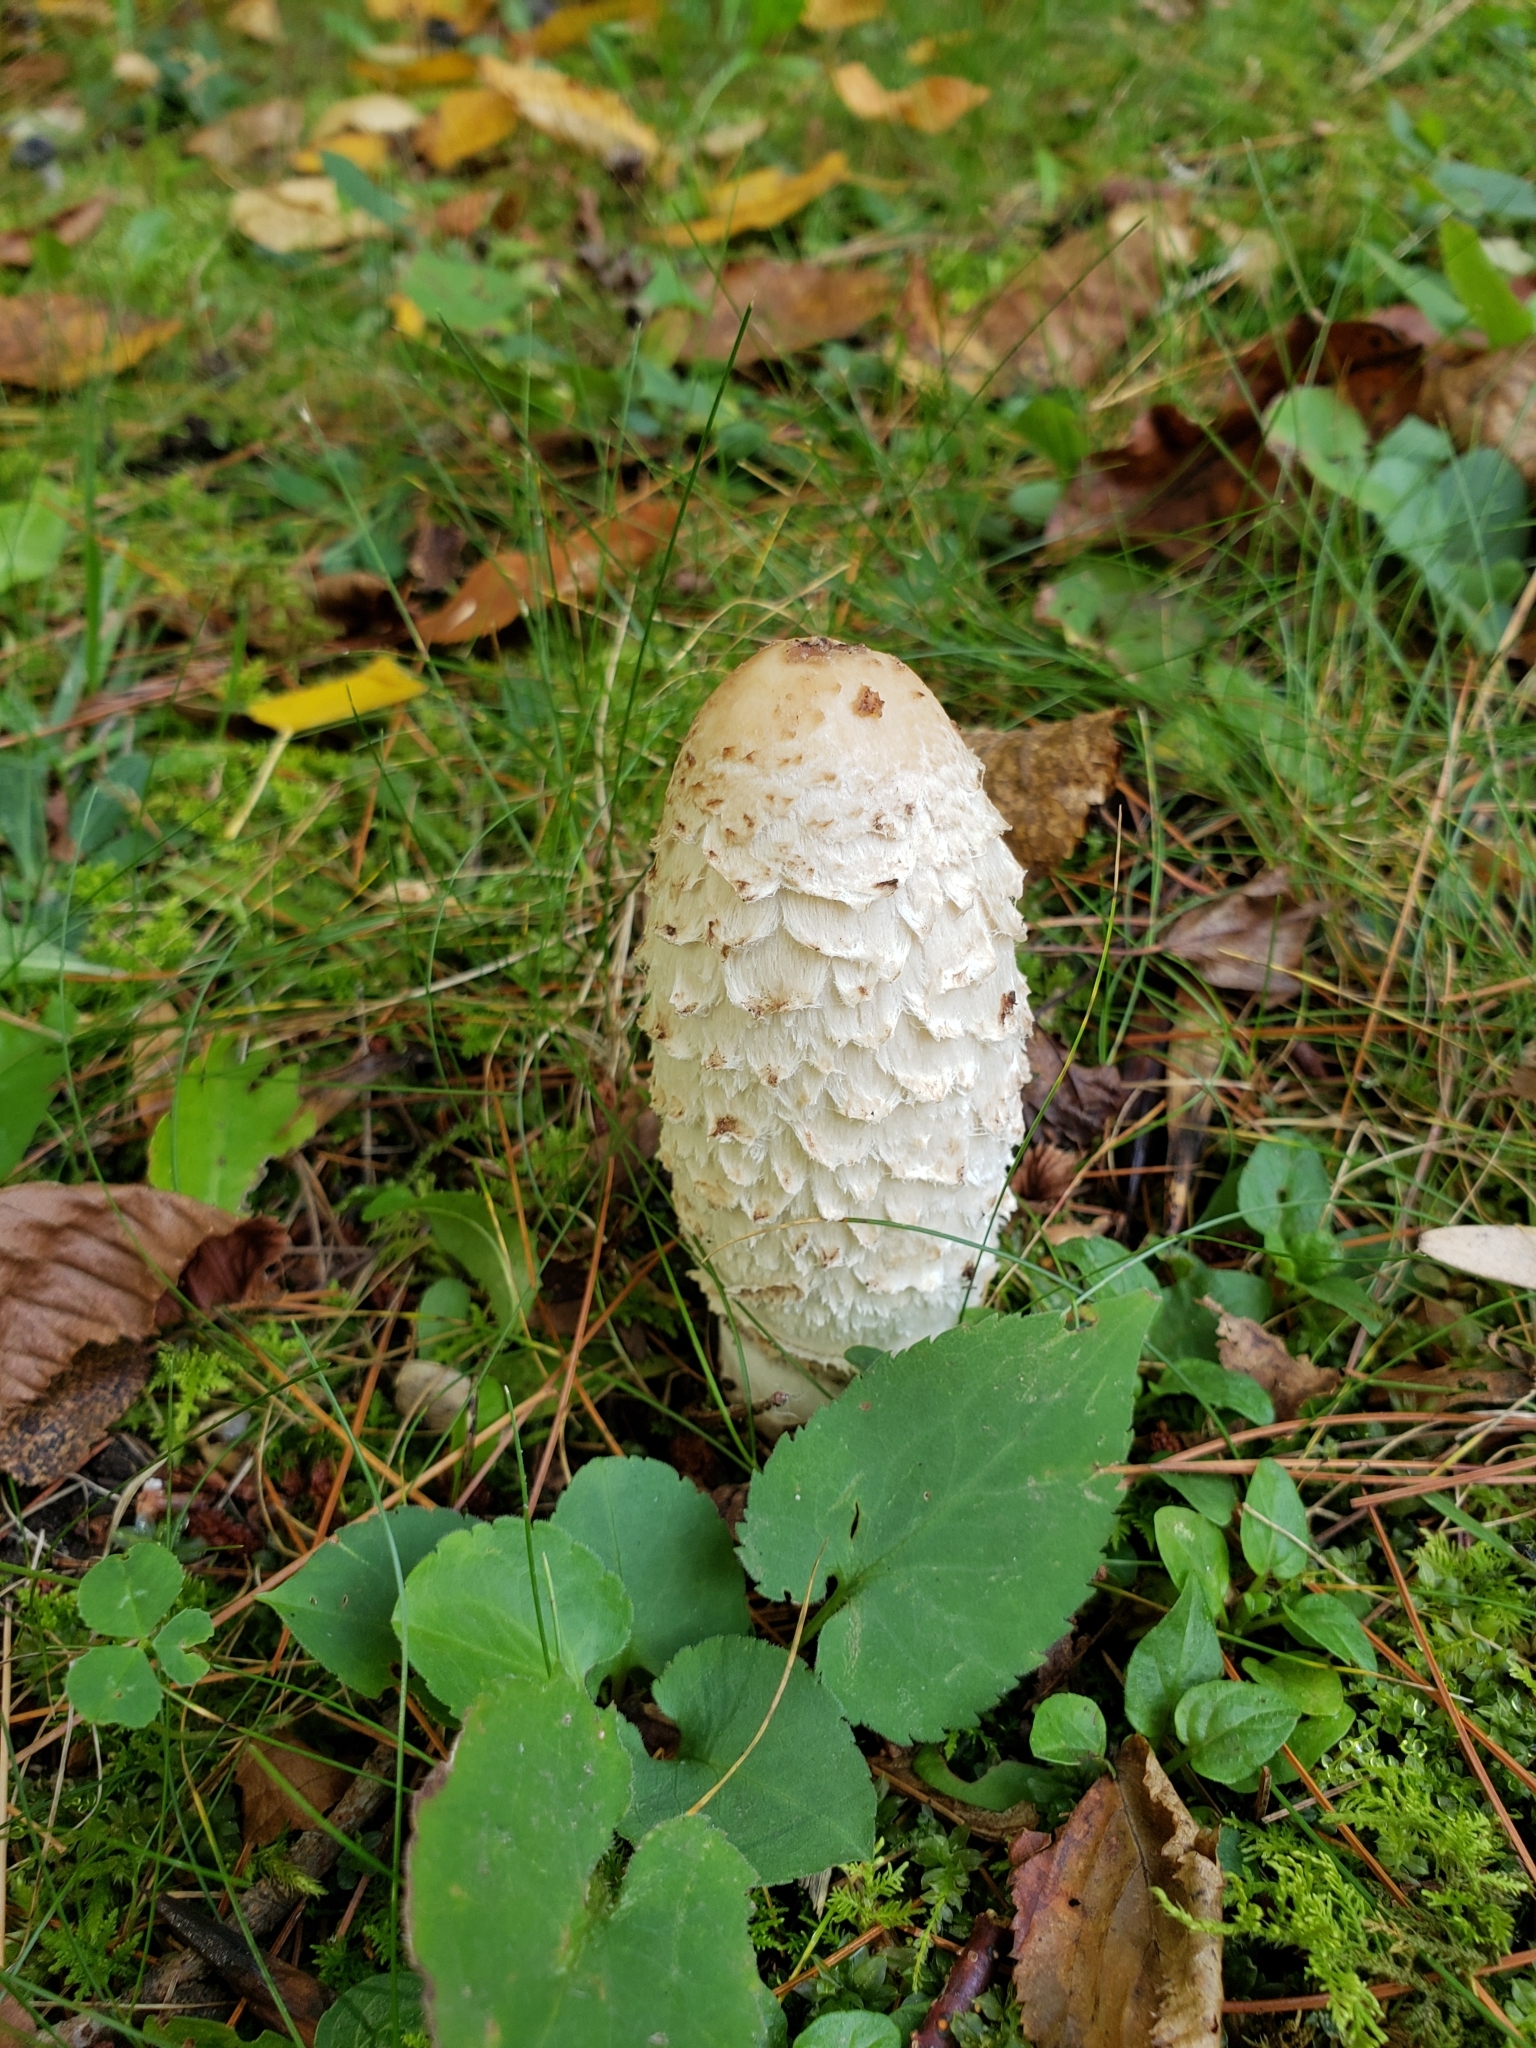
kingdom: Fungi
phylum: Basidiomycota
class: Agaricomycetes
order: Agaricales
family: Agaricaceae
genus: Coprinus
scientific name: Coprinus comatus
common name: Lawyer's wig
